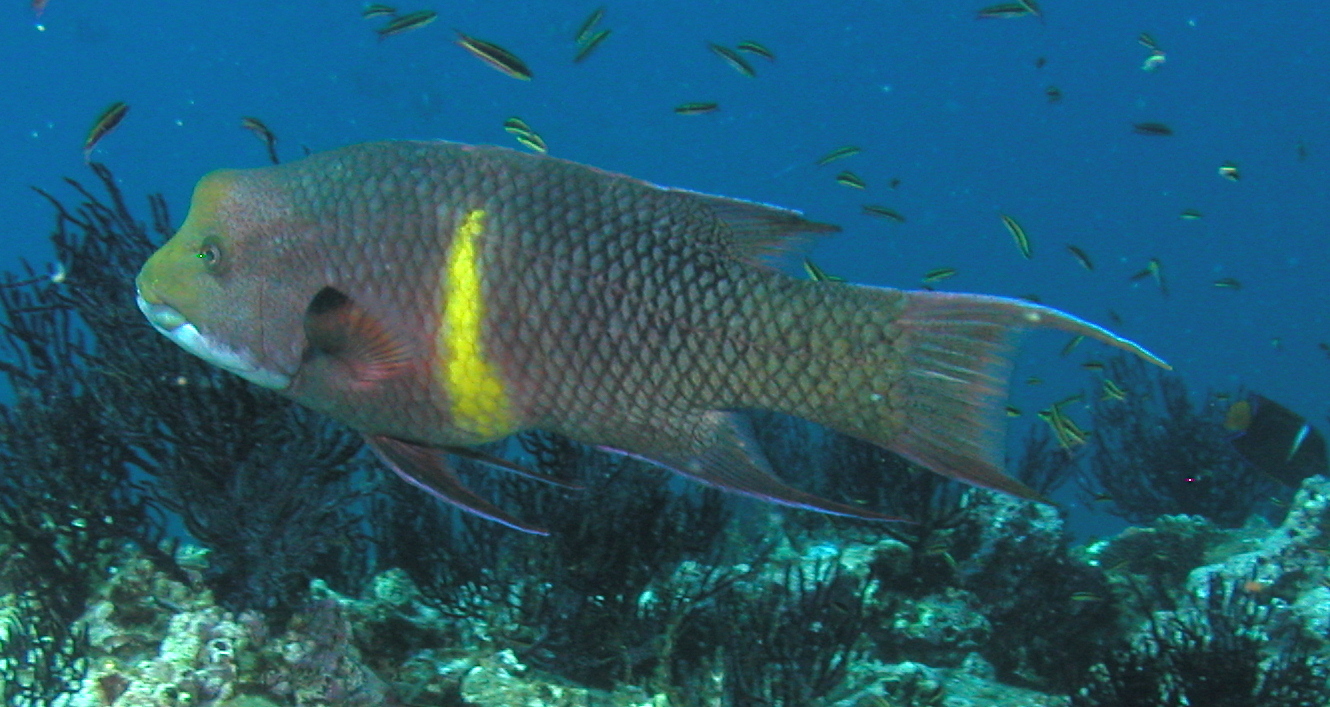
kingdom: Animalia
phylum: Chordata
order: Perciformes
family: Labridae
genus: Bodianus
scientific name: Bodianus diplotaenia
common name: Mexican hogfish
